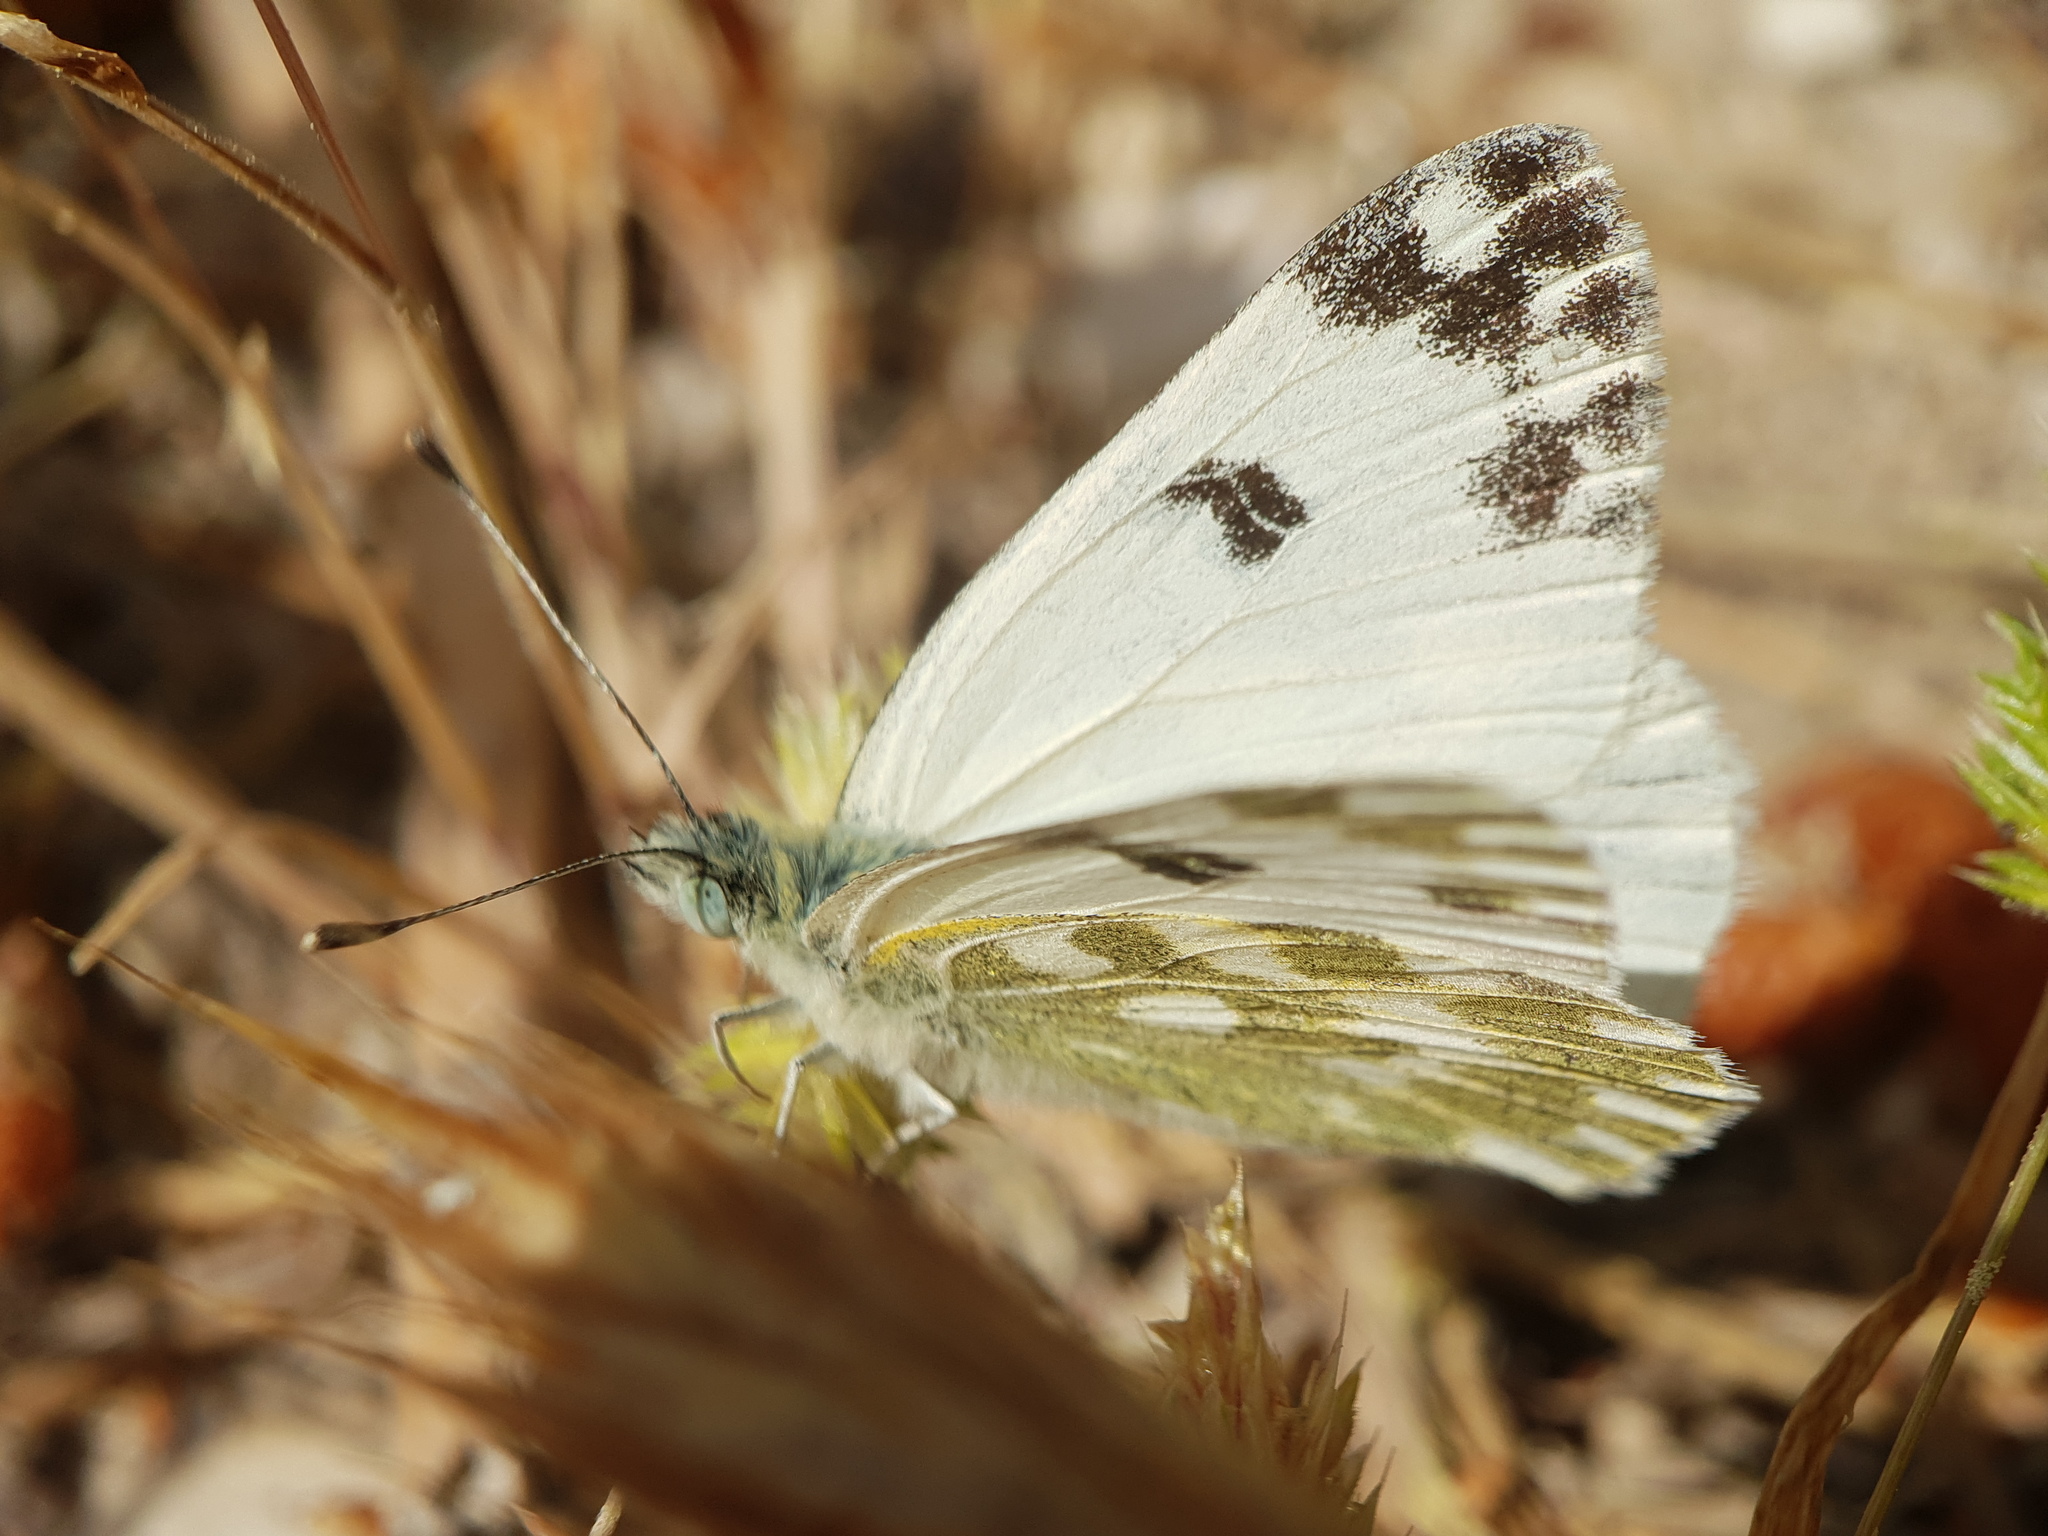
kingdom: Animalia
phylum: Arthropoda
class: Insecta
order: Lepidoptera
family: Pieridae
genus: Pontia
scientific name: Pontia daplidice
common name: Bath white
